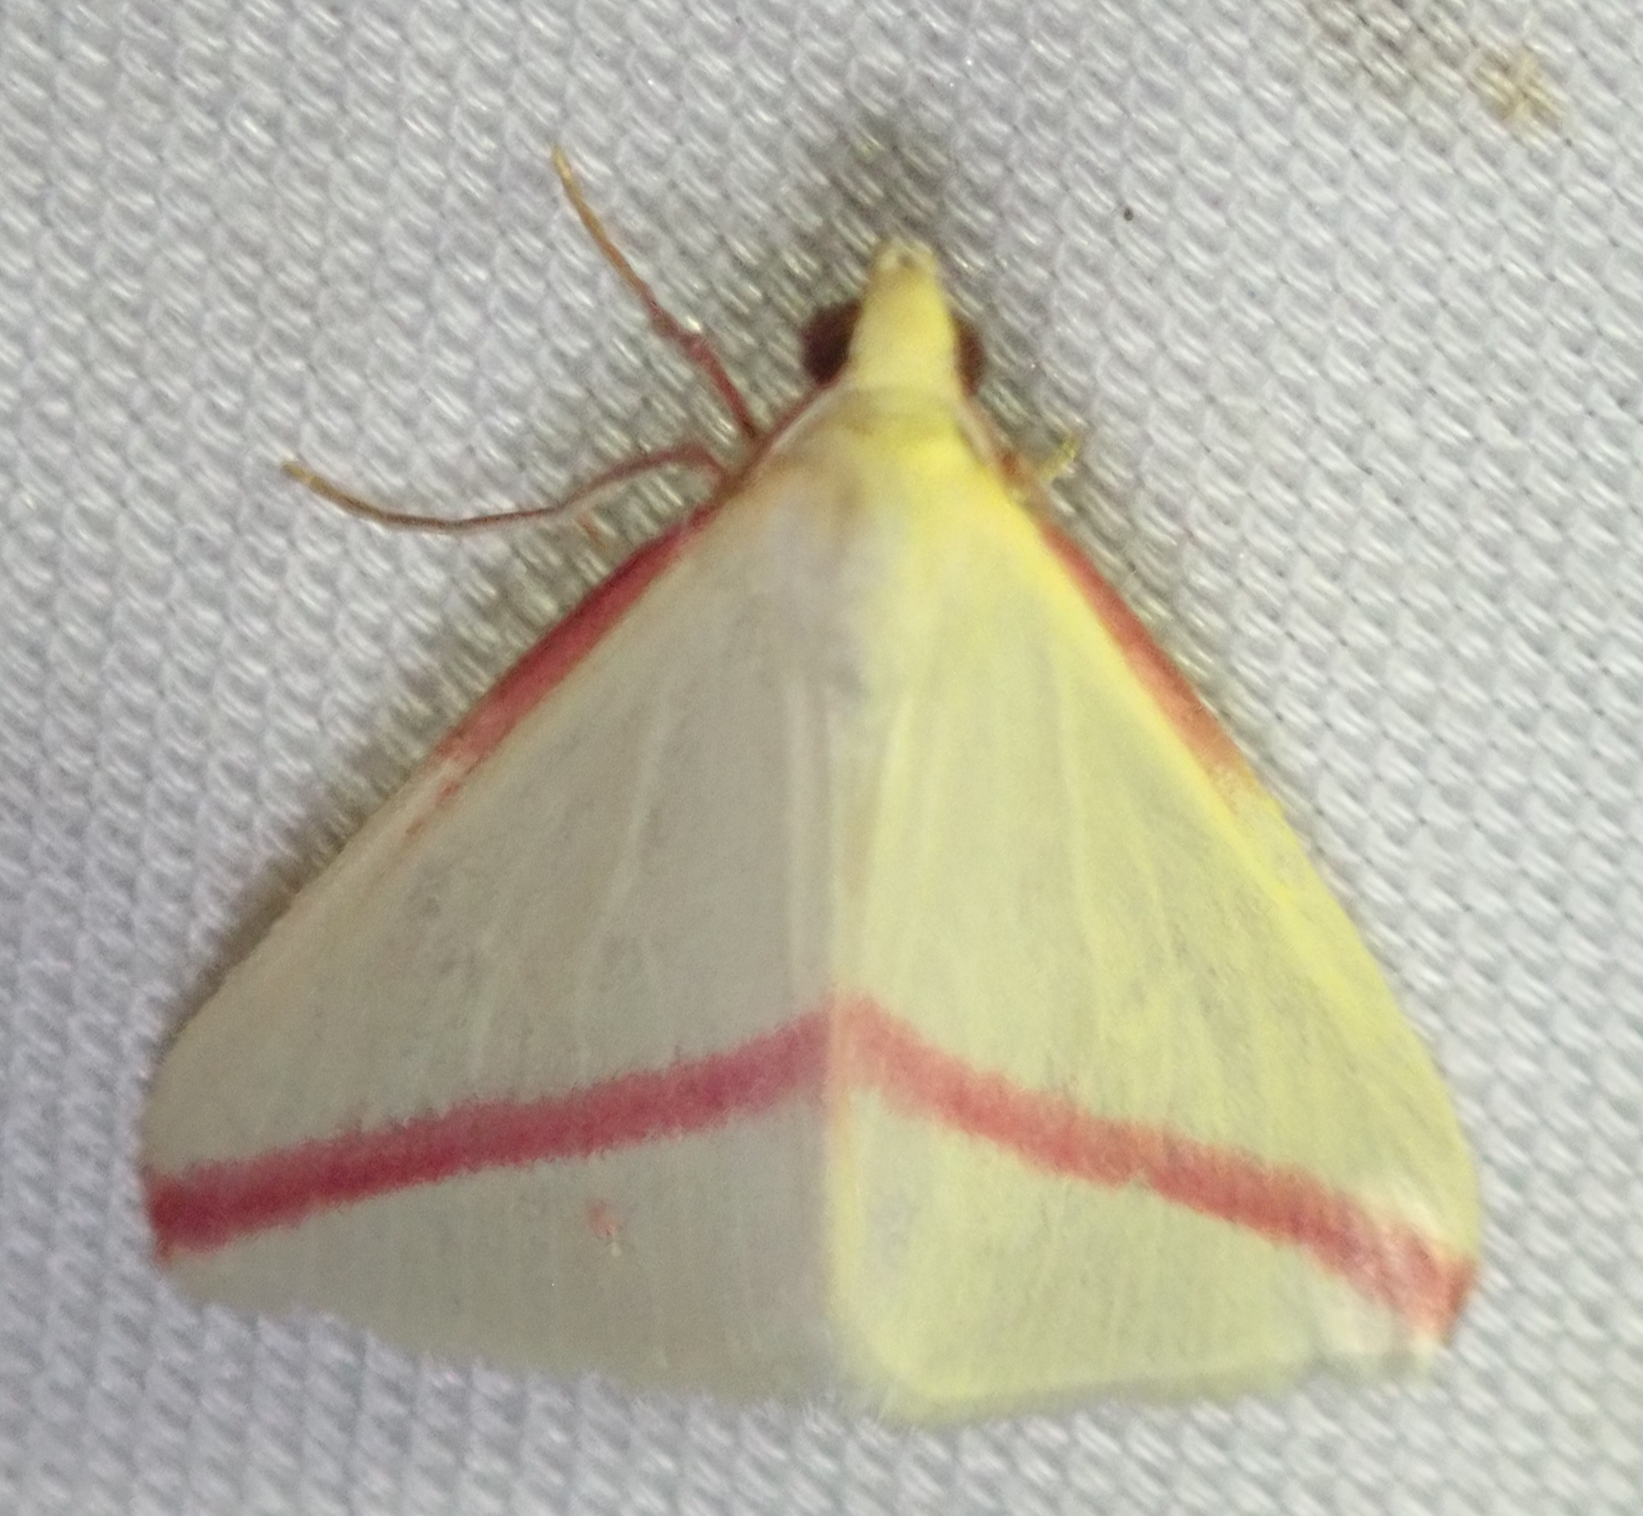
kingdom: Animalia
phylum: Arthropoda
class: Insecta
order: Lepidoptera
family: Geometridae
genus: Rhodometra
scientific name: Rhodometra sacraria
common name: Vestal
